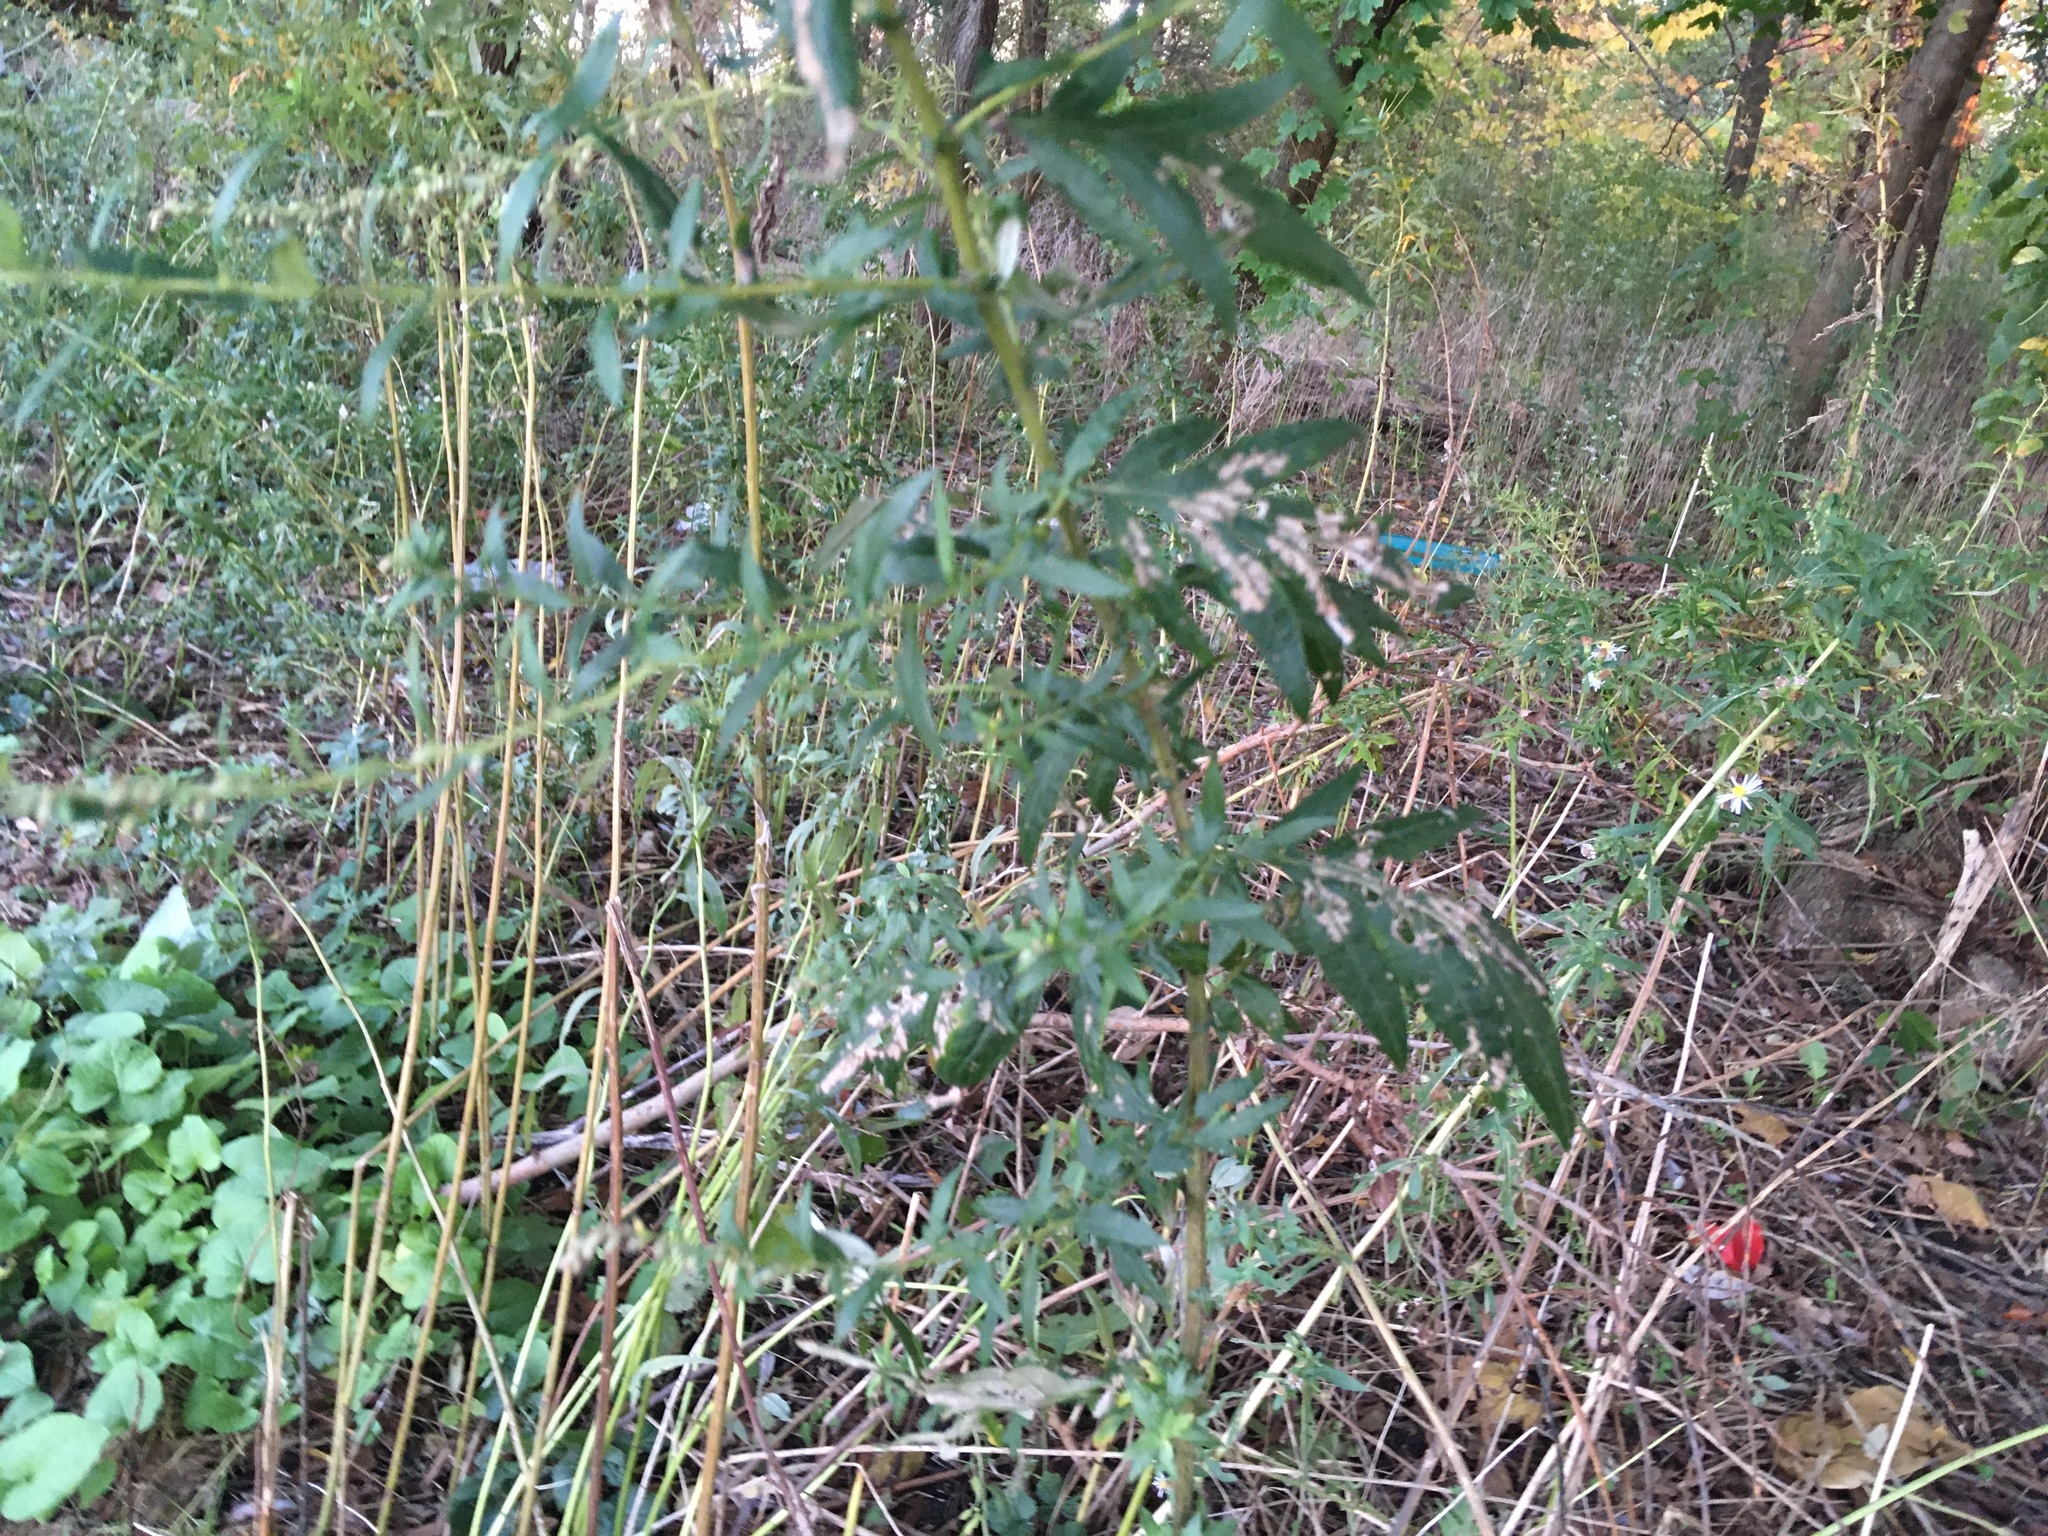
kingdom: Plantae
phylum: Tracheophyta
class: Magnoliopsida
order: Asterales
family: Asteraceae
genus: Artemisia
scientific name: Artemisia vulgaris
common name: Mugwort
